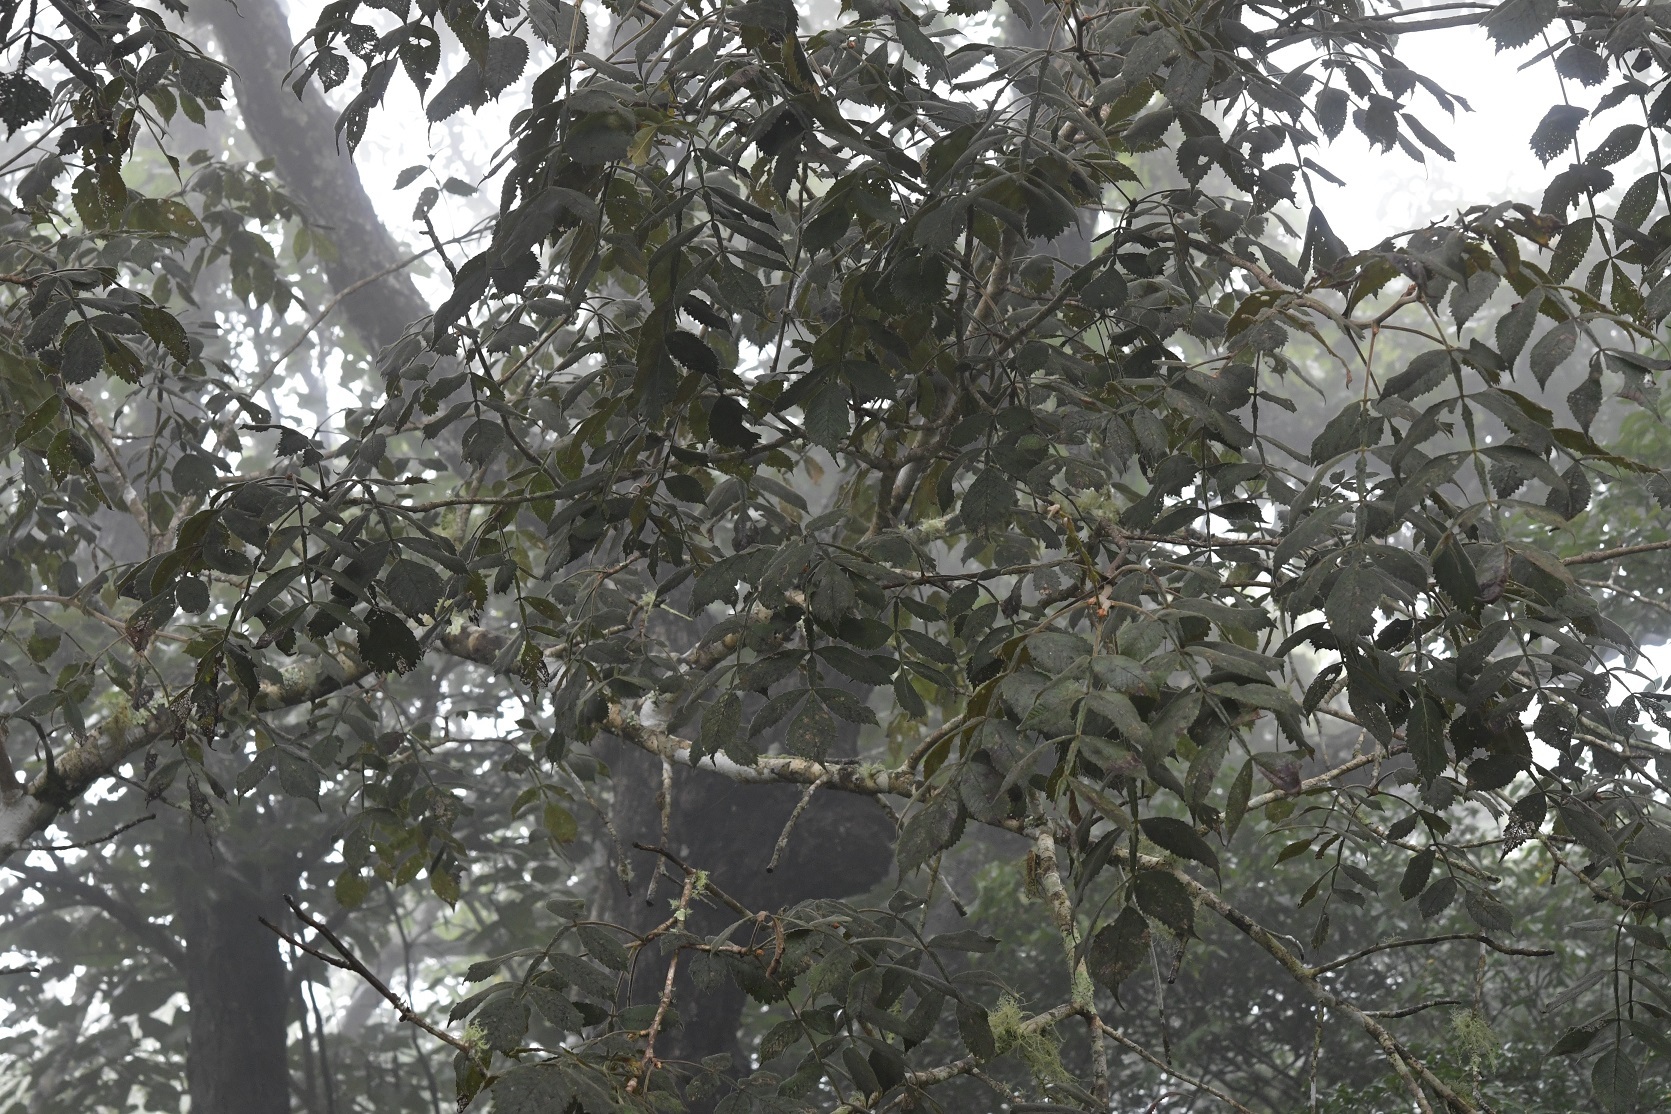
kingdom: Plantae
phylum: Tracheophyta
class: Magnoliopsida
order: Sapindales
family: Burseraceae
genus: Bursera
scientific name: Bursera excelsa
